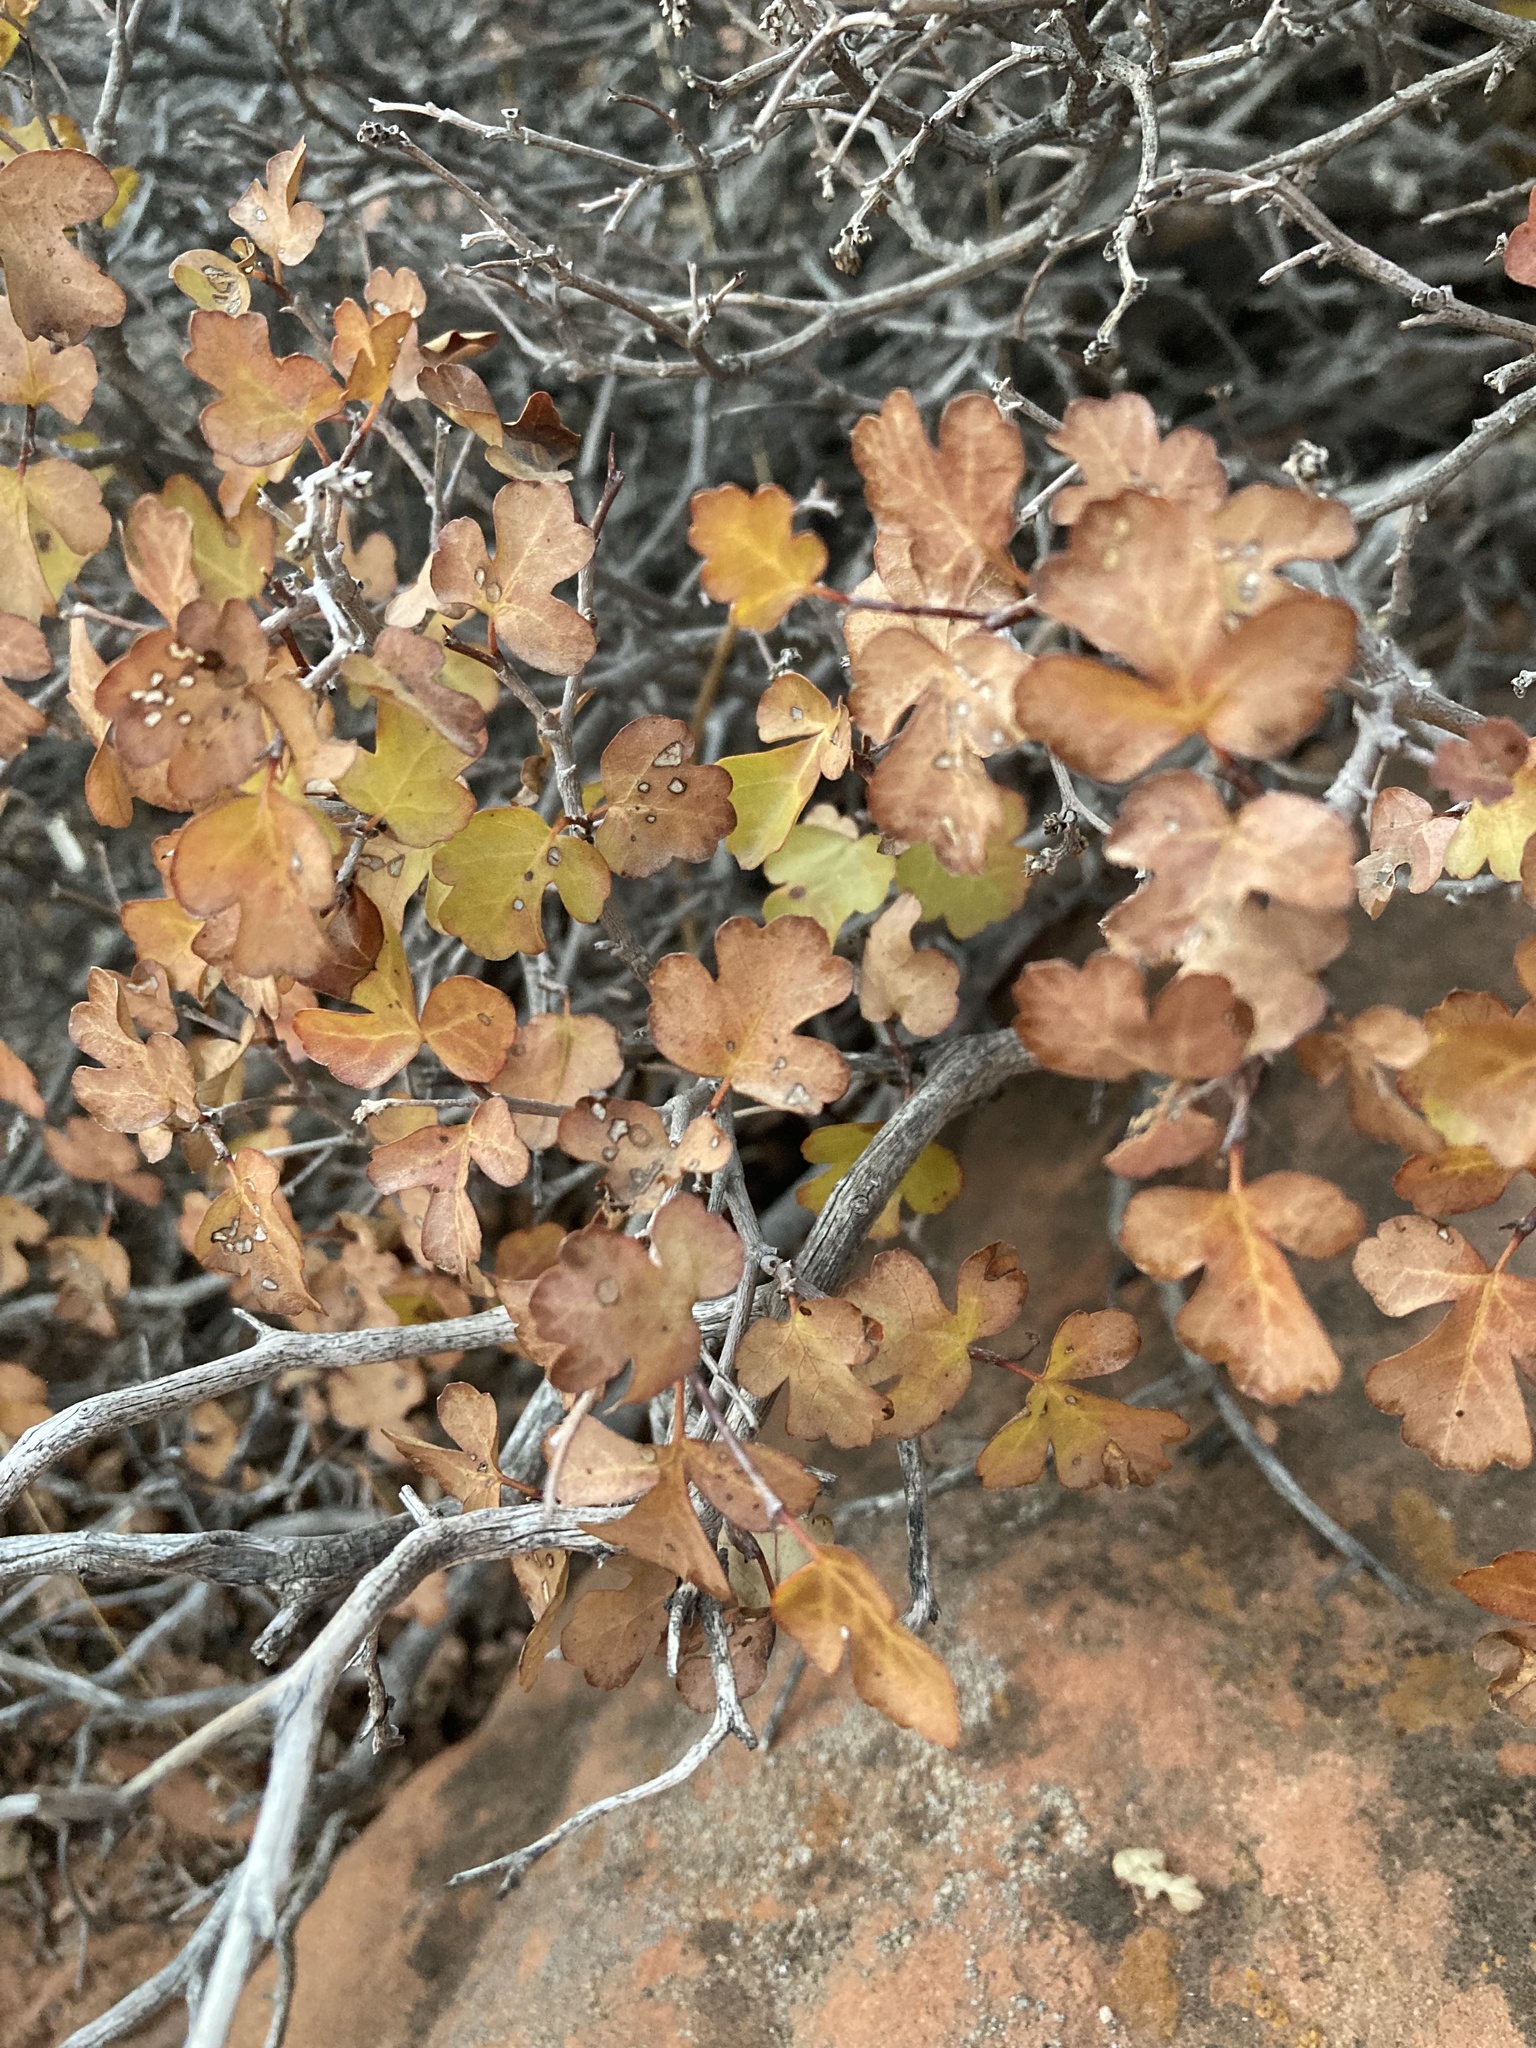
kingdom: Plantae
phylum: Tracheophyta
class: Magnoliopsida
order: Sapindales
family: Anacardiaceae
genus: Rhus
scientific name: Rhus aromatica
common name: Aromatic sumac
